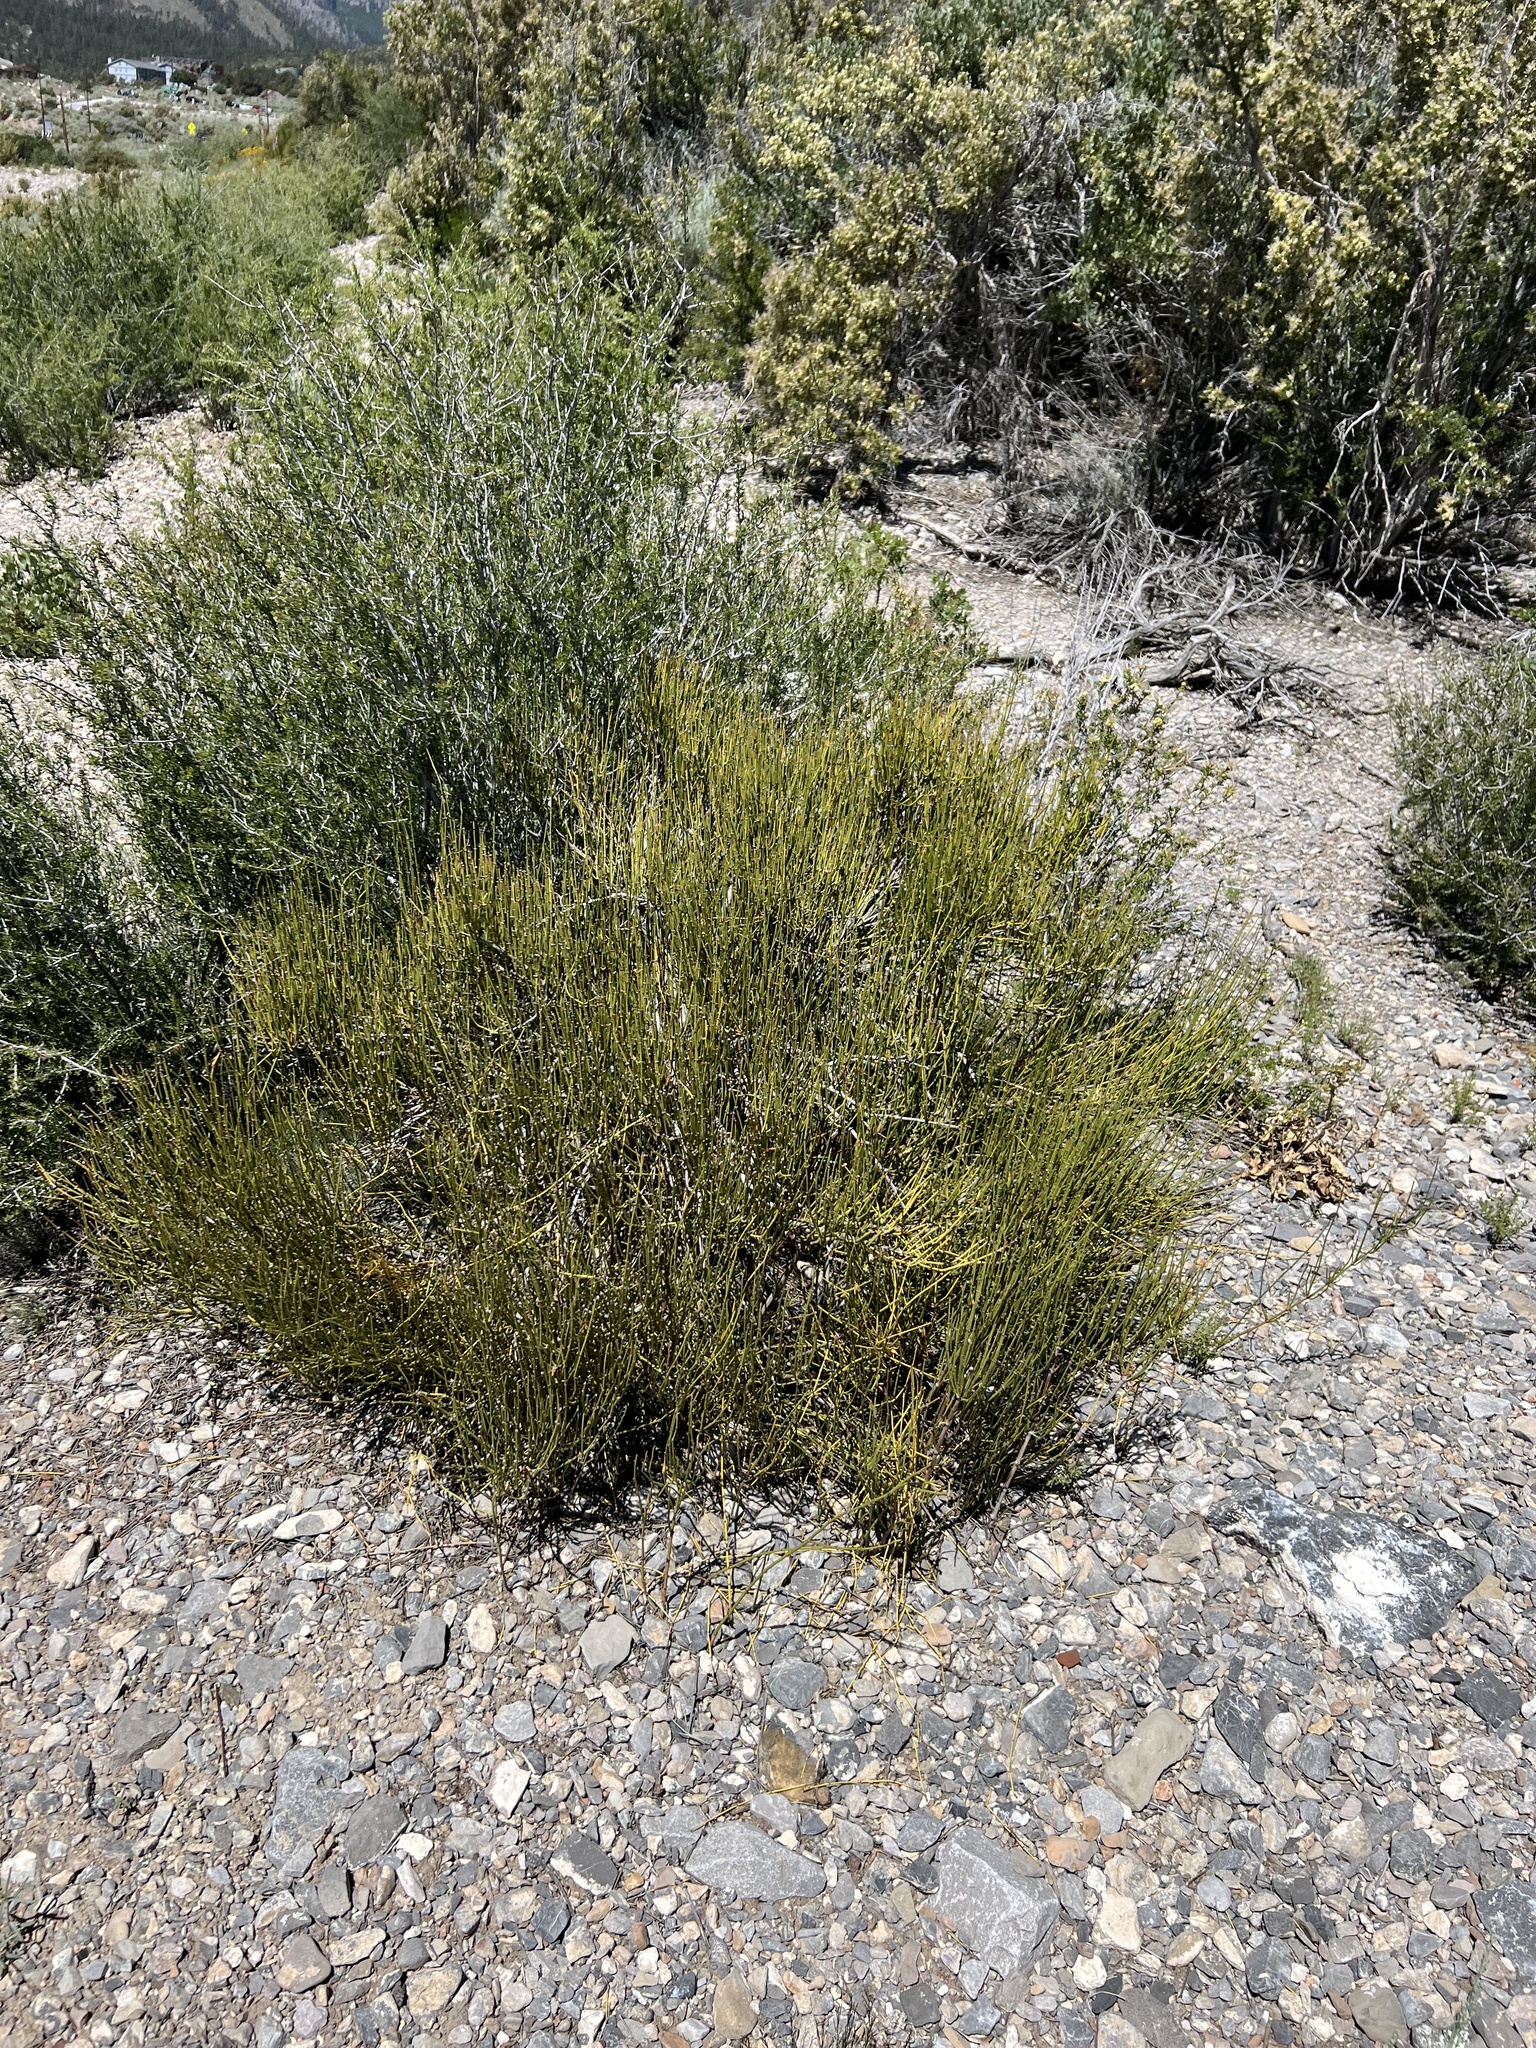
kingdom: Plantae
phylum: Tracheophyta
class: Gnetopsida
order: Ephedrales
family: Ephedraceae
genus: Ephedra
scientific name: Ephedra viridis
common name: Green ephedra
